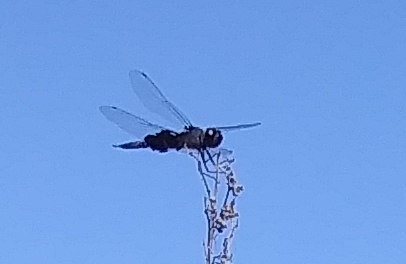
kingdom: Animalia
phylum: Arthropoda
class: Insecta
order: Odonata
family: Libellulidae
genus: Tramea
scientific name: Tramea lacerata
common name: Black saddlebags
